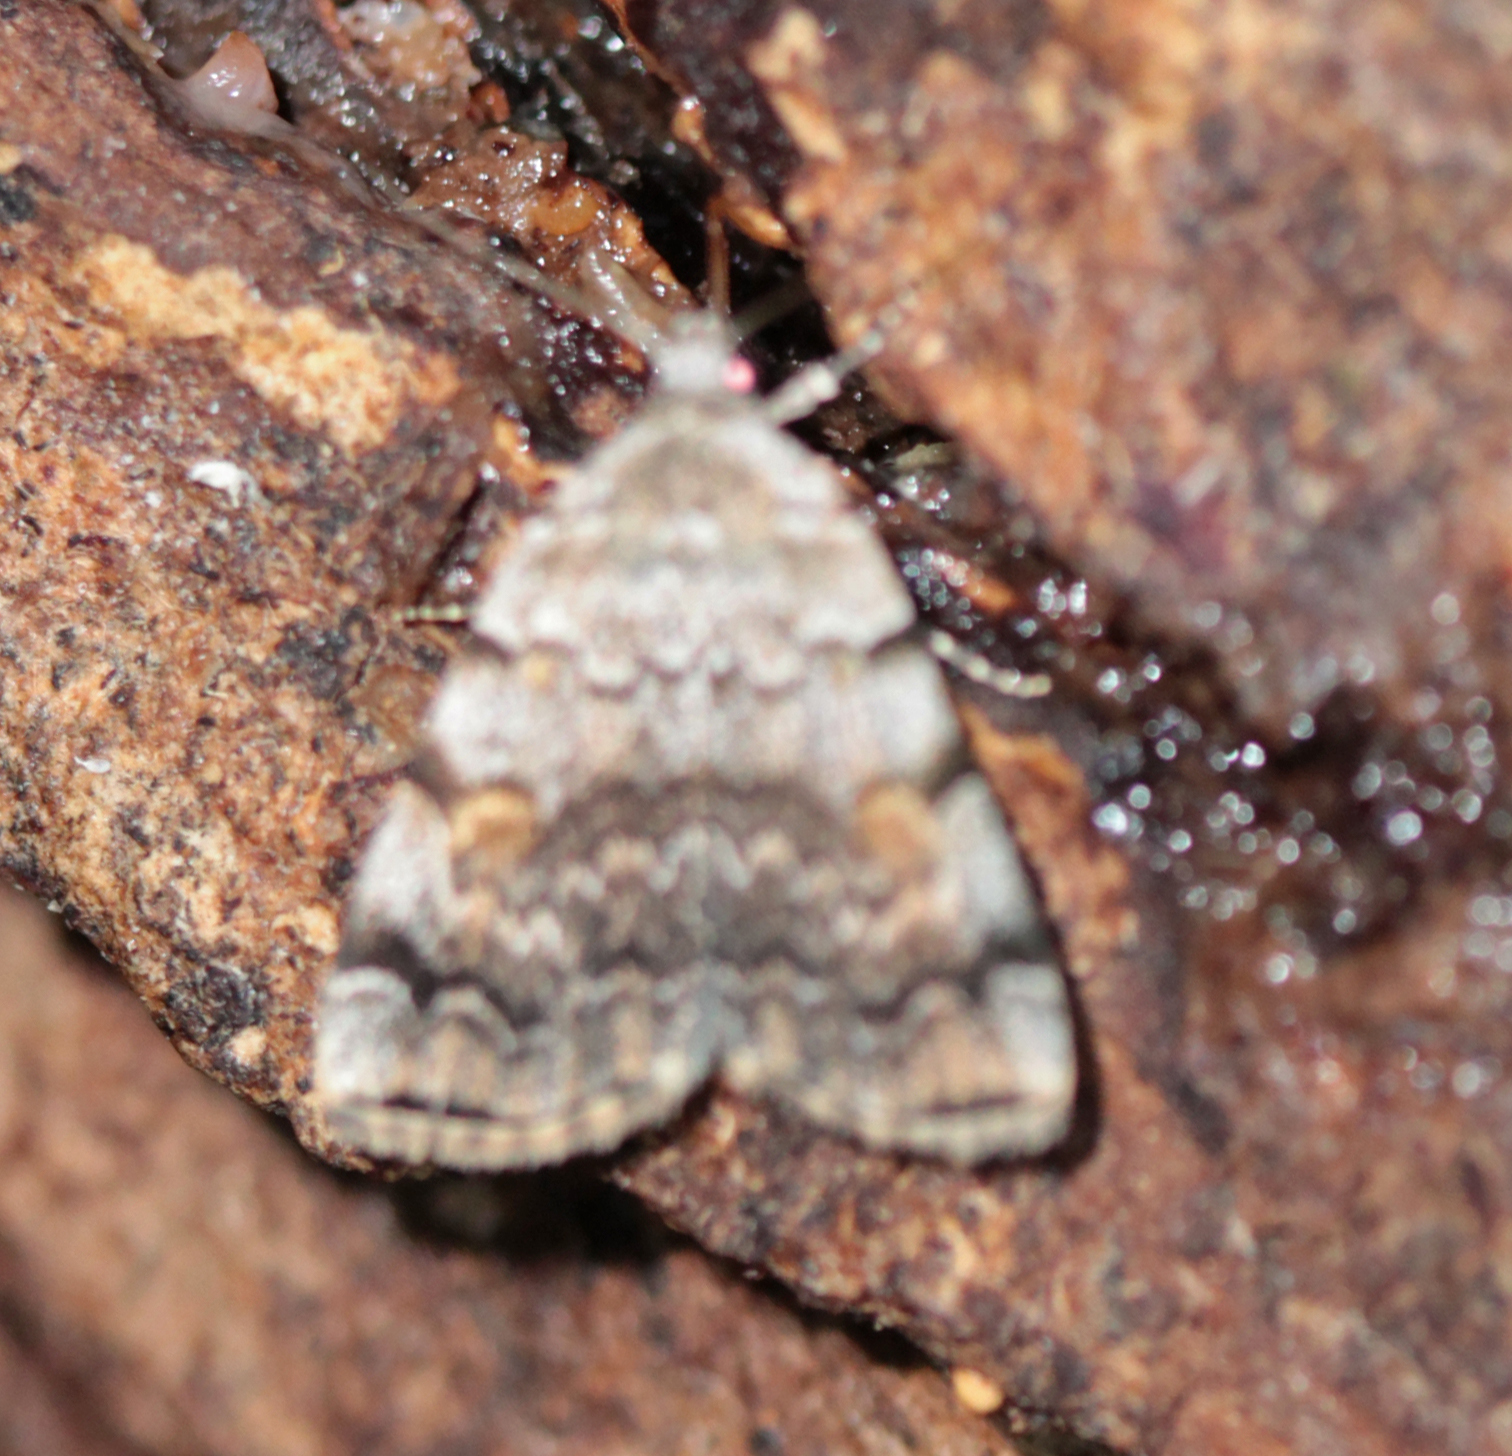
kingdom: Animalia
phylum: Arthropoda
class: Insecta
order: Lepidoptera
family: Erebidae
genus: Idia
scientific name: Idia americalis
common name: American idia moth
